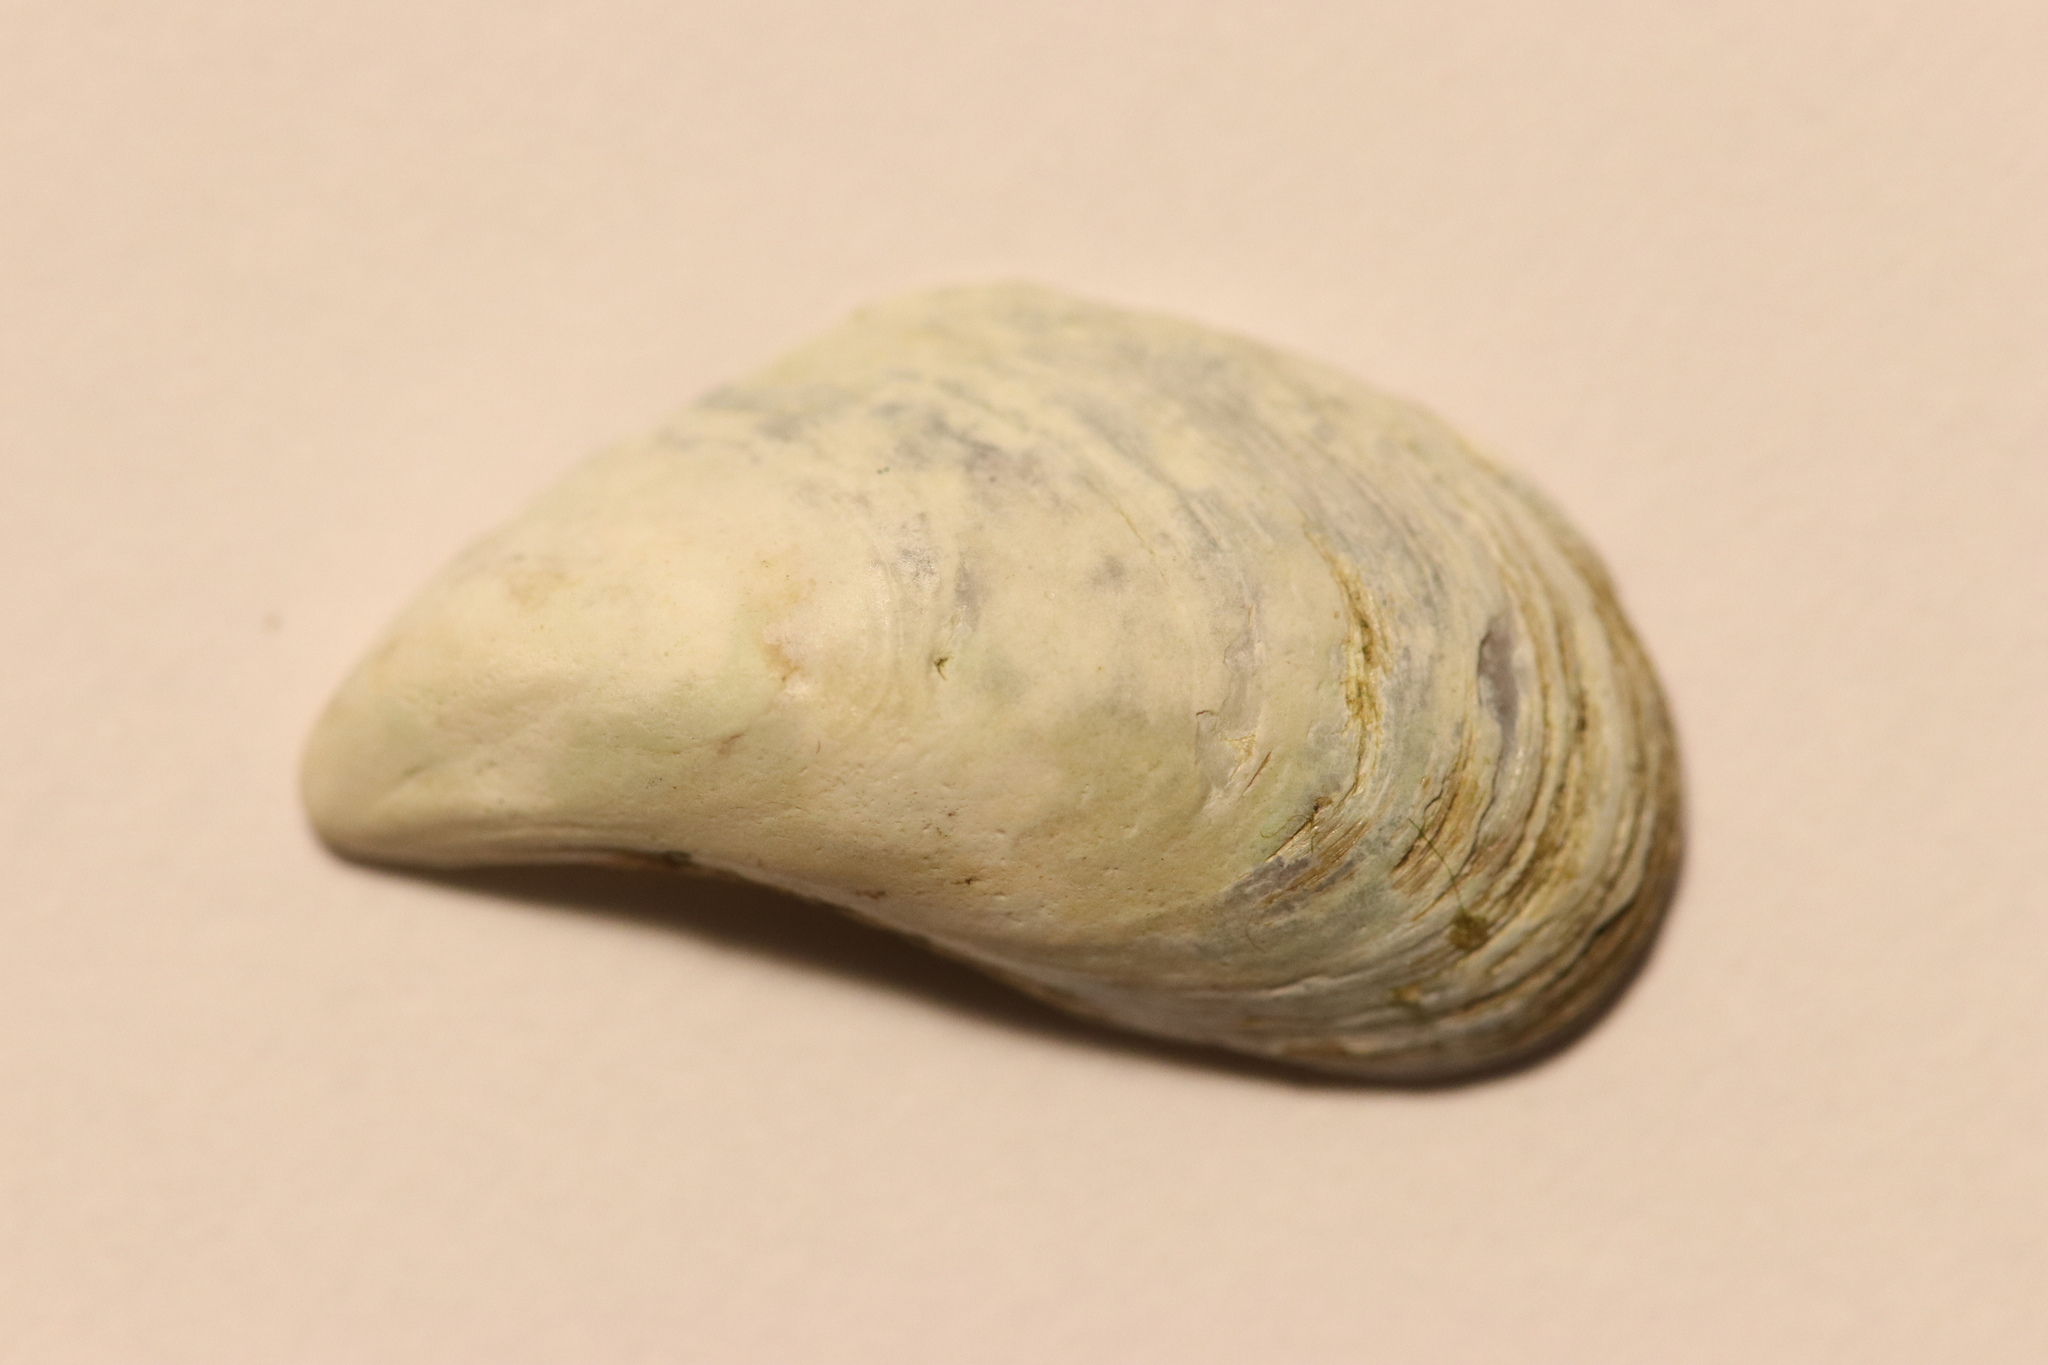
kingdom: Animalia
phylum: Mollusca
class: Bivalvia
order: Myida
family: Dreissenidae
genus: Dreissena
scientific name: Dreissena bugensis
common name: Quagga mussel
